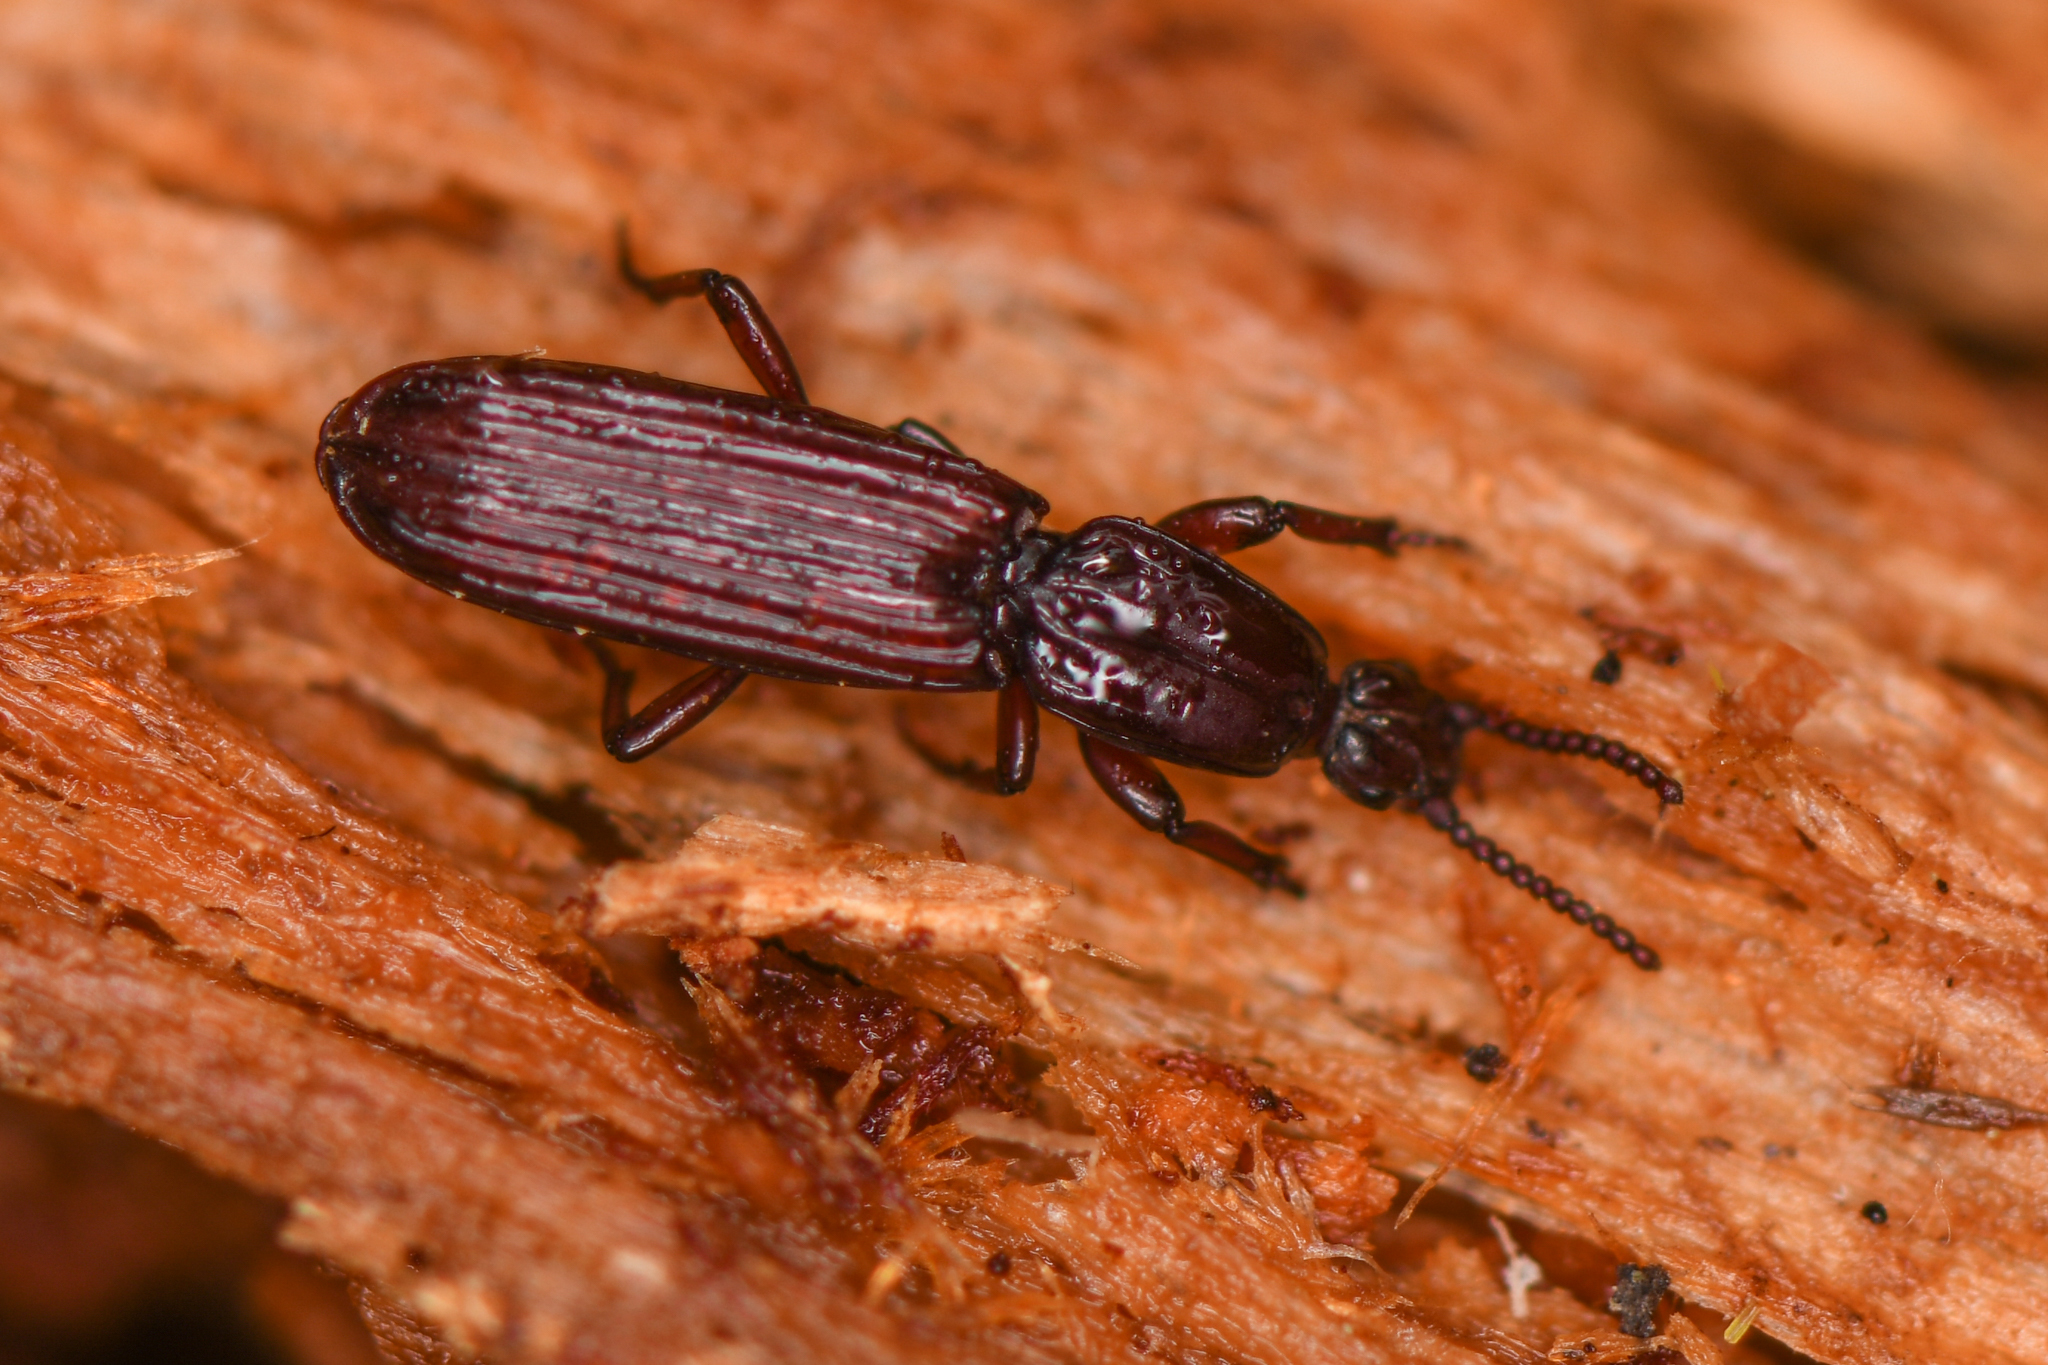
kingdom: Animalia
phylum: Arthropoda
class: Insecta
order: Coleoptera
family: Carabidae
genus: Clinidium
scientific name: Clinidium calcaratum
